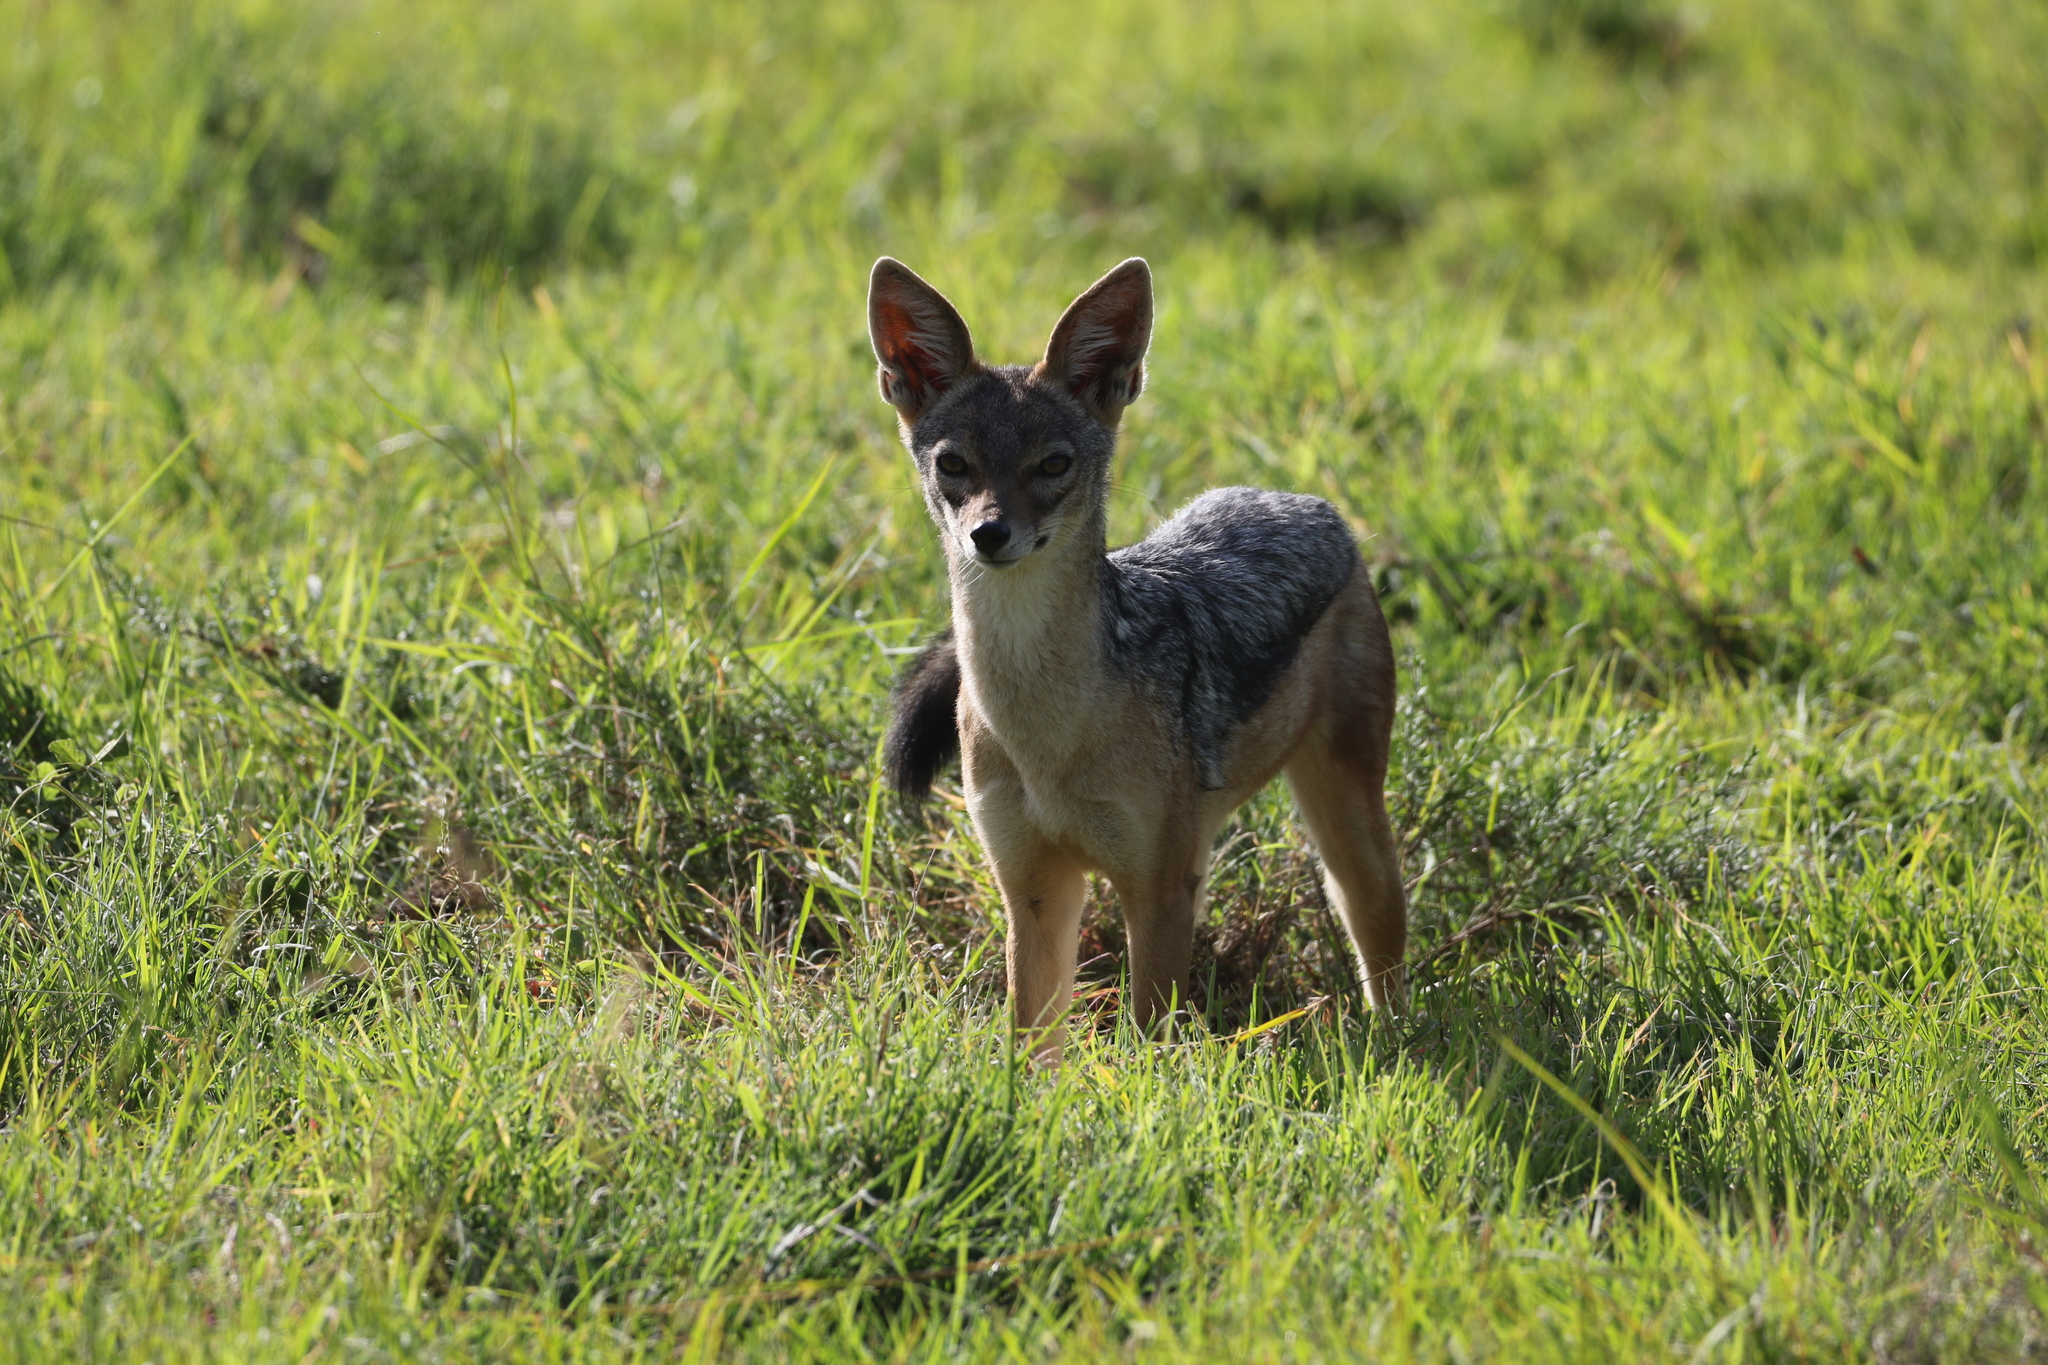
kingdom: Animalia
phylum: Chordata
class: Mammalia
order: Carnivora
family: Canidae
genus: Lupulella
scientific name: Lupulella
